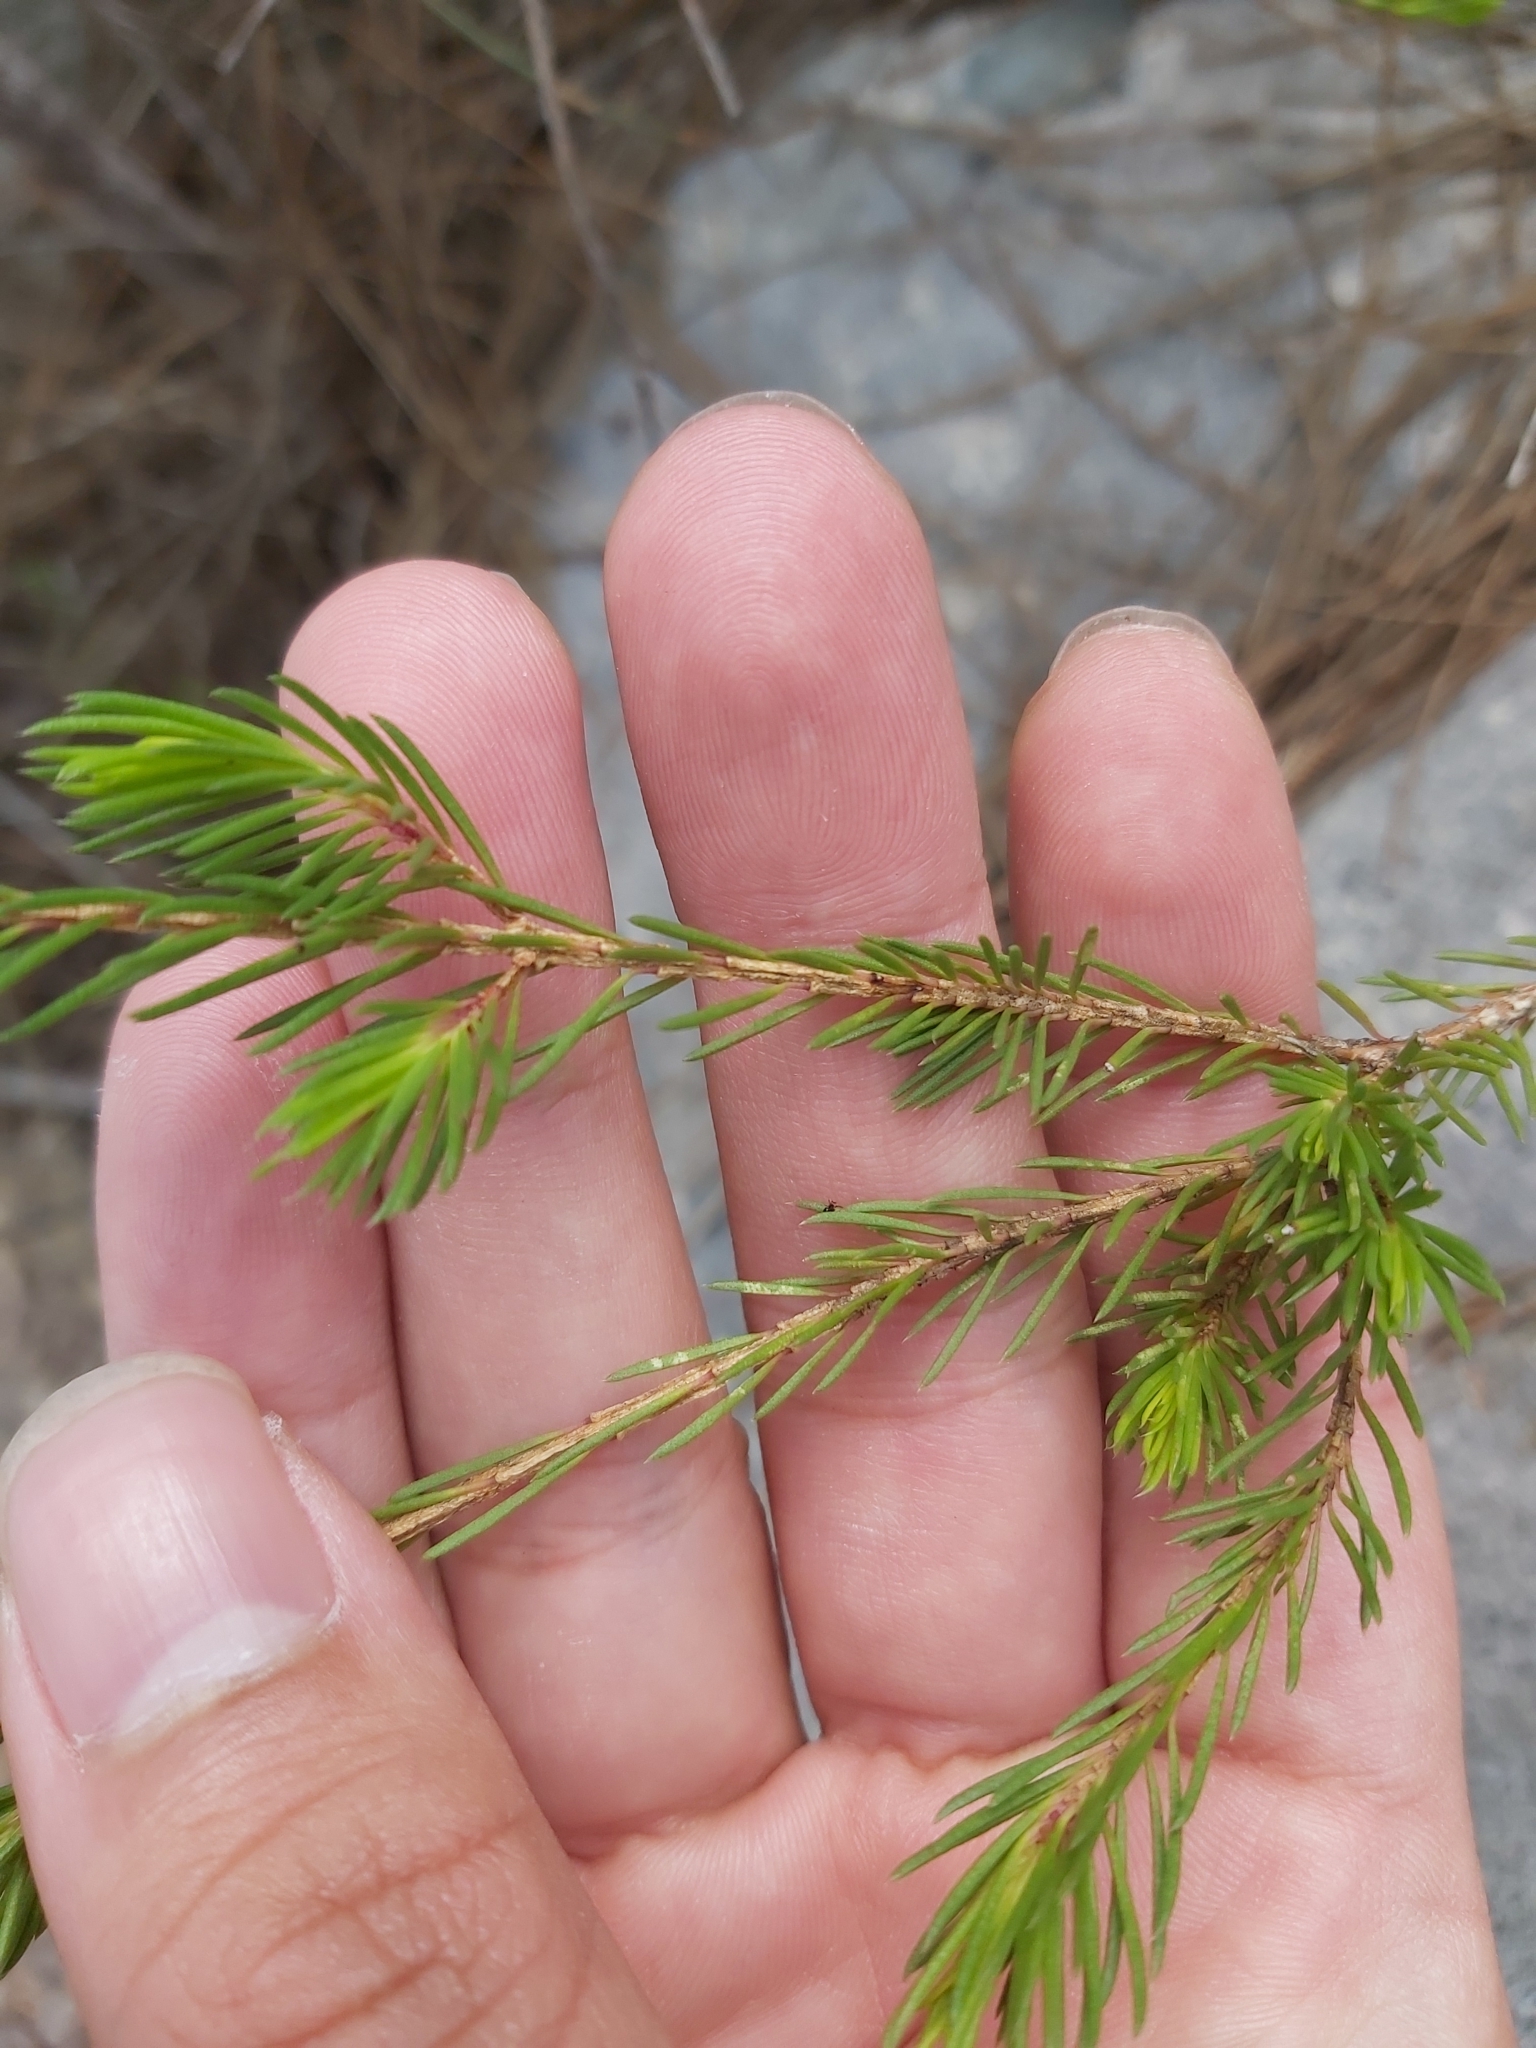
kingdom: Plantae
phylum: Tracheophyta
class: Magnoliopsida
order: Myrtales
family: Myrtaceae
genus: Darwinia
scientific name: Darwinia fascicularis
